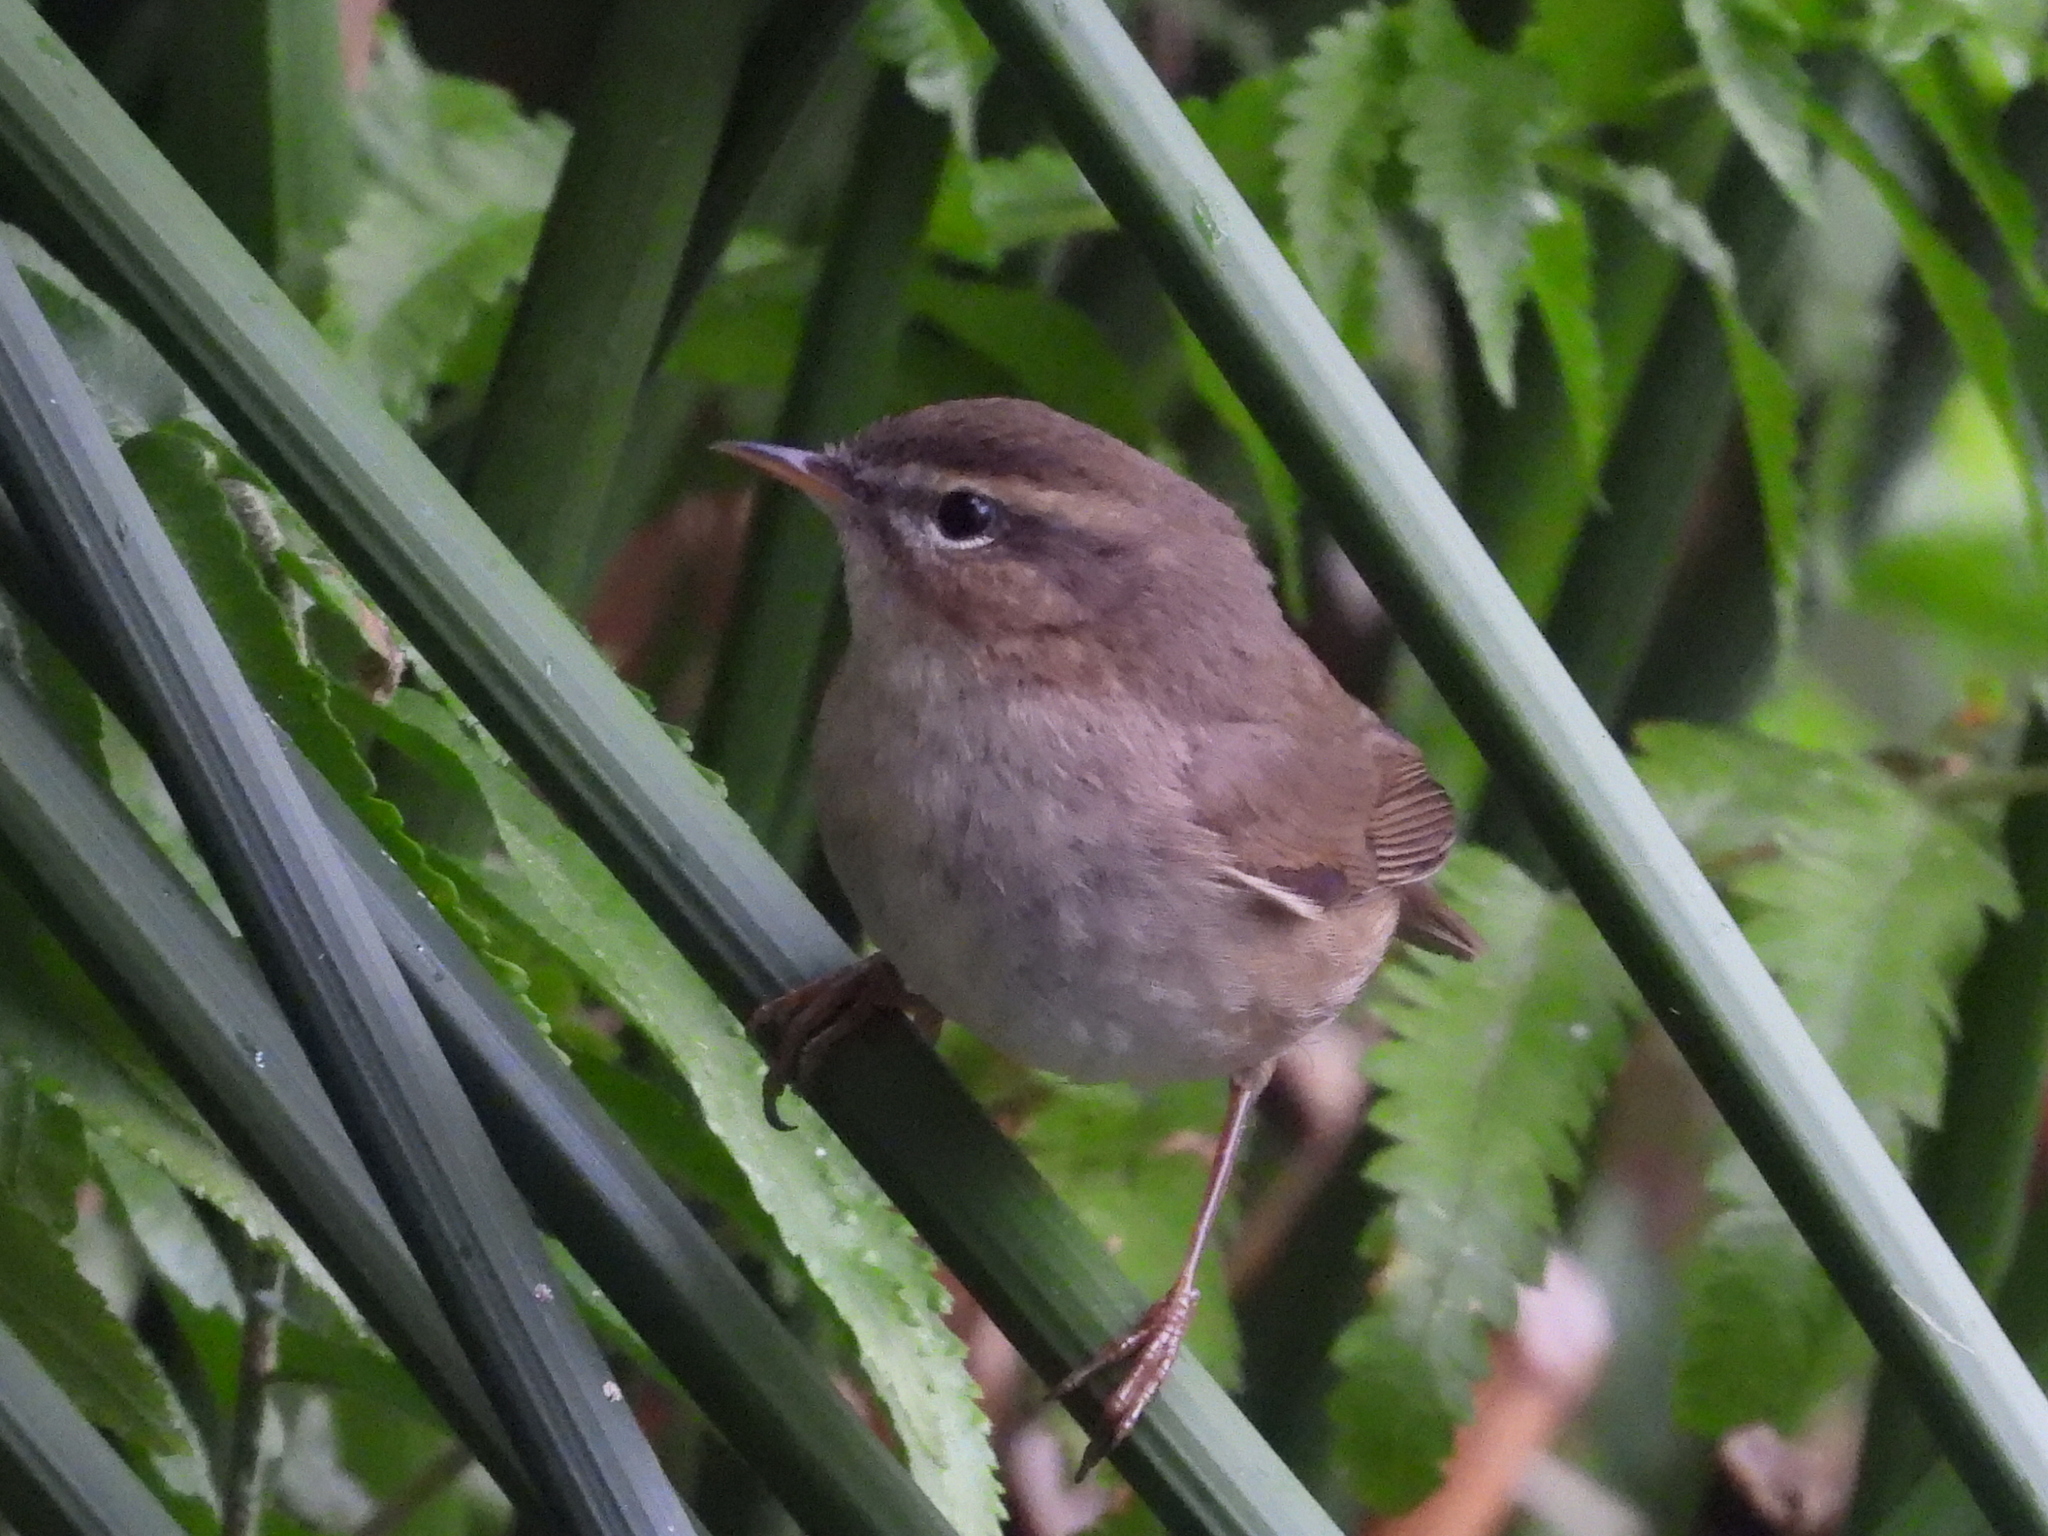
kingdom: Animalia
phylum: Chordata
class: Aves
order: Passeriformes
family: Phylloscopidae
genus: Phylloscopus
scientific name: Phylloscopus fuscatus
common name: Dusky warbler
